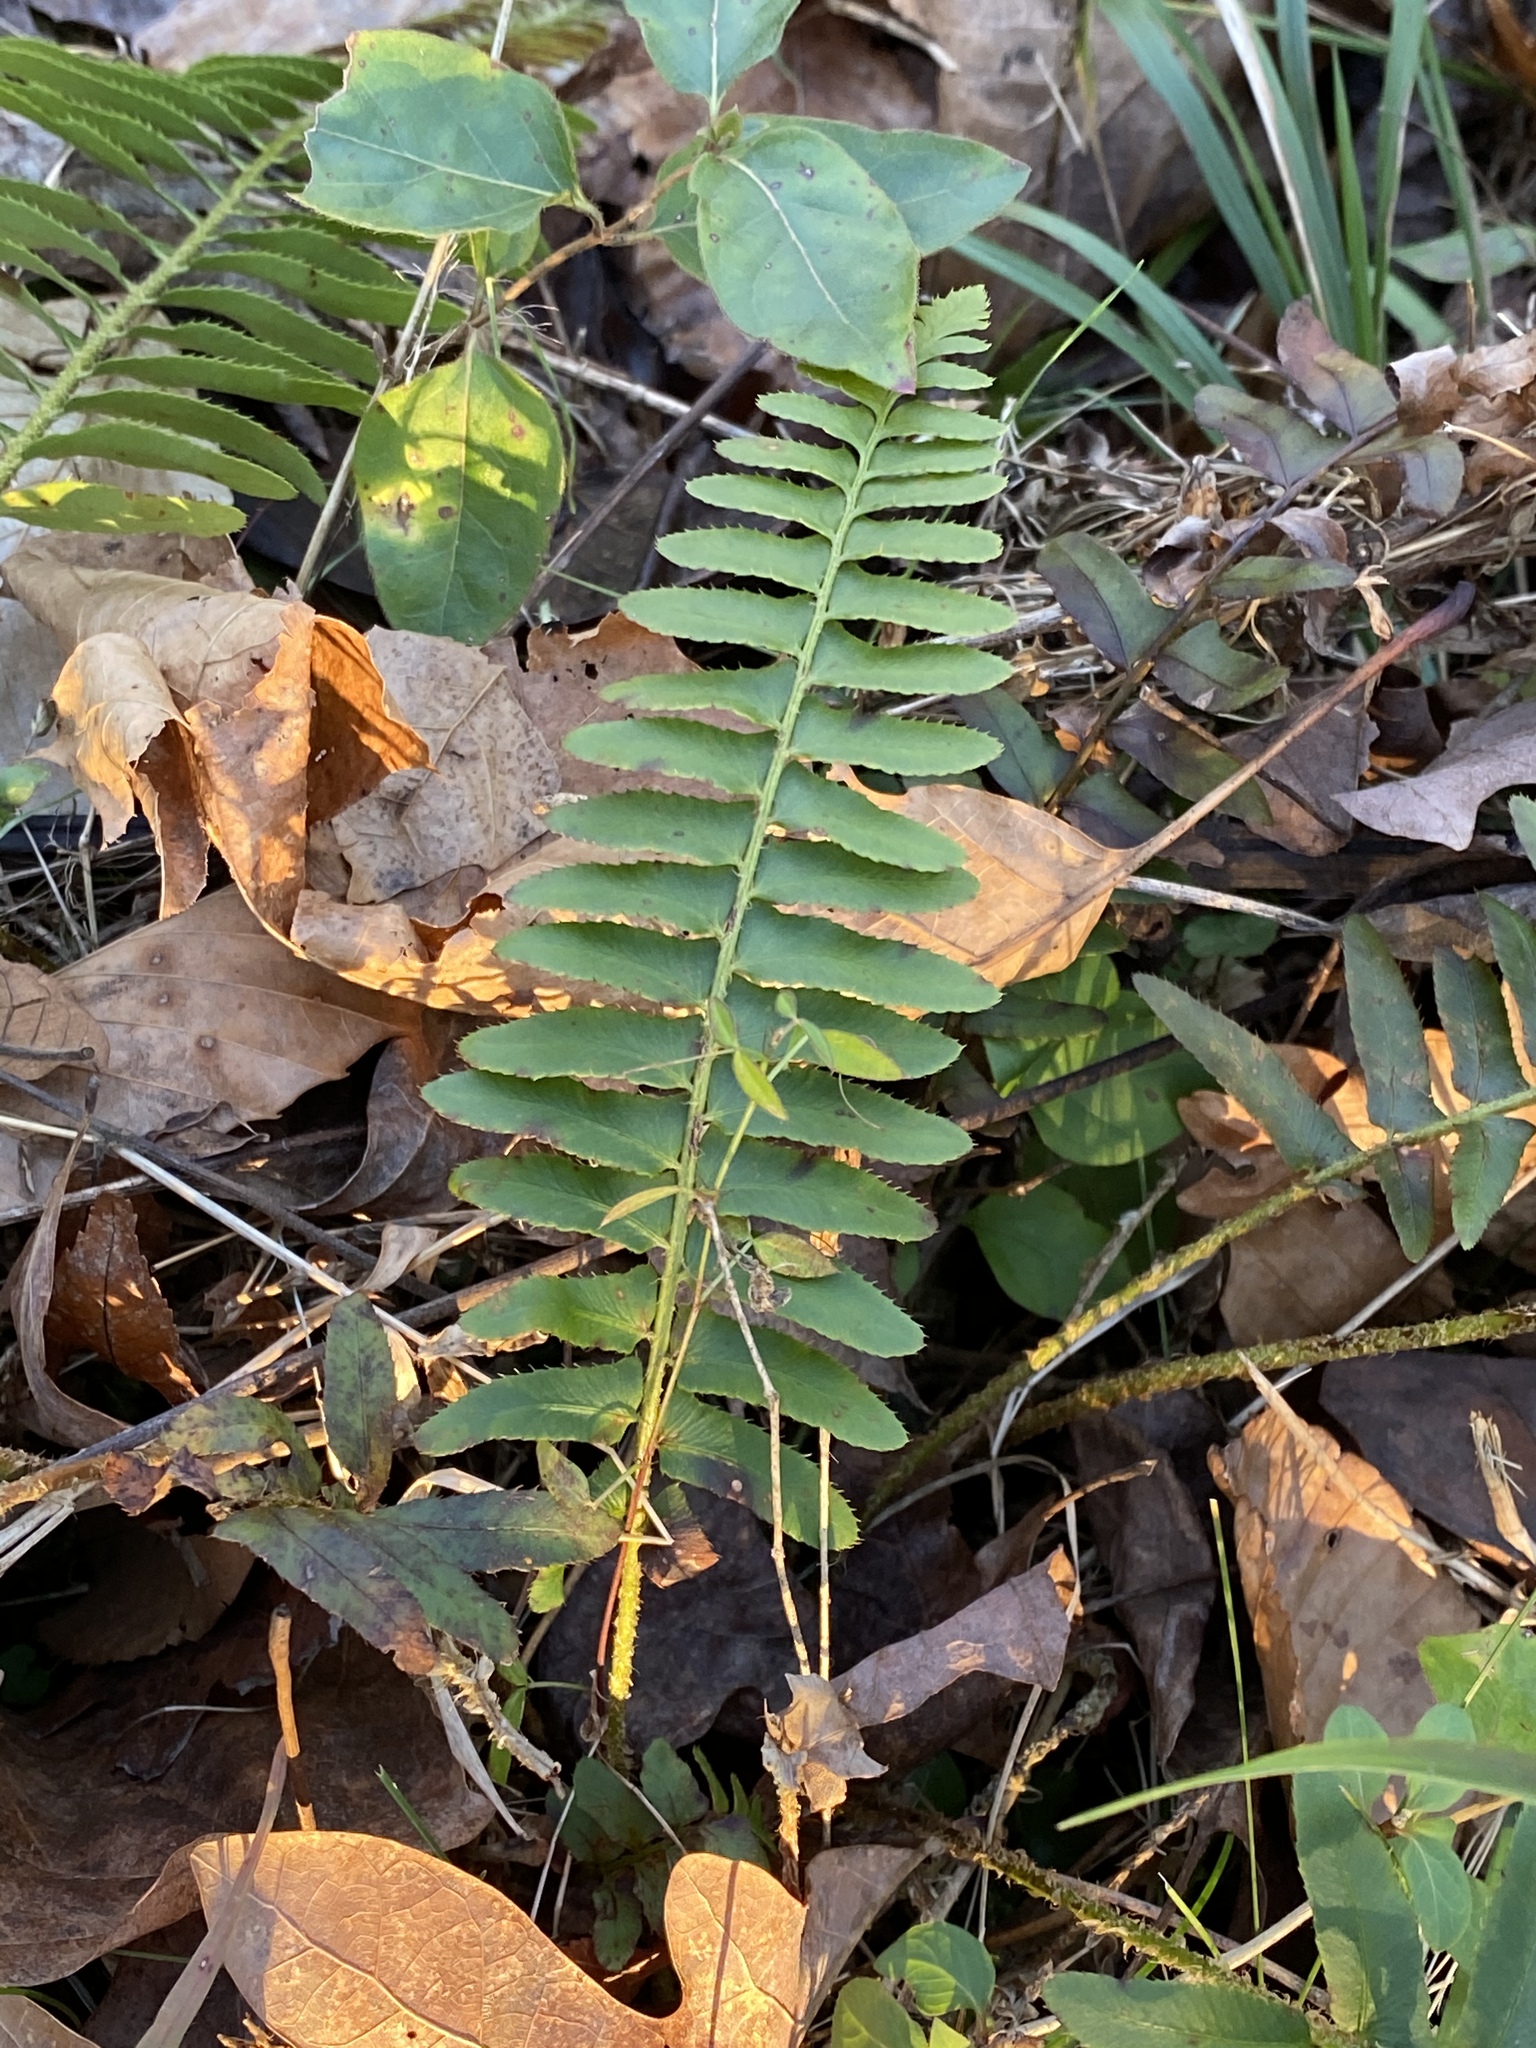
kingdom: Plantae
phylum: Tracheophyta
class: Polypodiopsida
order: Polypodiales
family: Dryopteridaceae
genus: Polystichum
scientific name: Polystichum acrostichoides
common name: Christmas fern
